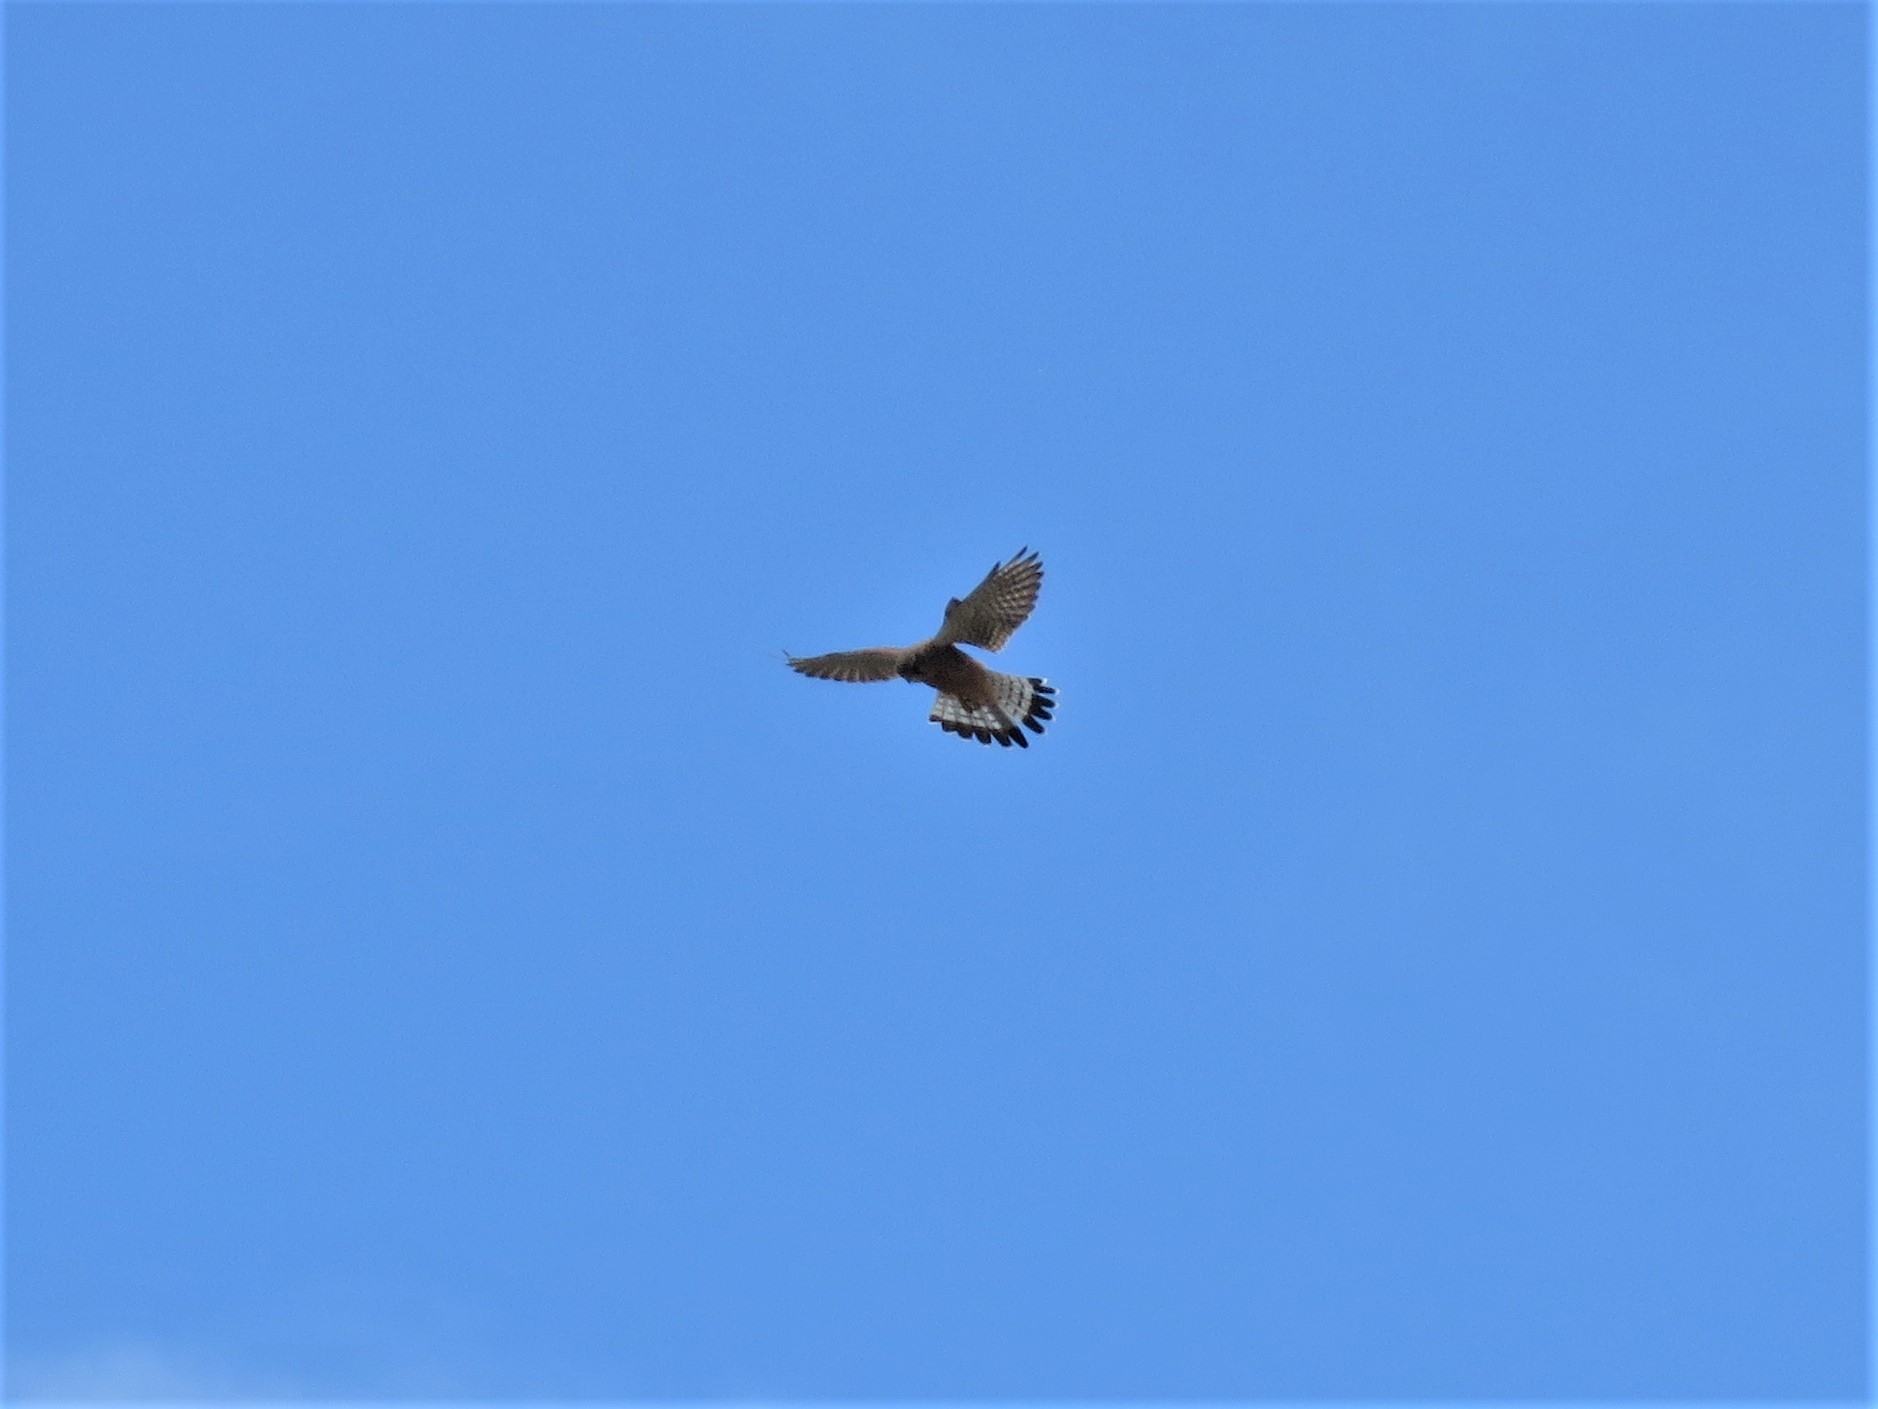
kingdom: Animalia
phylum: Chordata
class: Aves
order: Falconiformes
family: Falconidae
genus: Falco
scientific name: Falco tinnunculus
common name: Common kestrel
